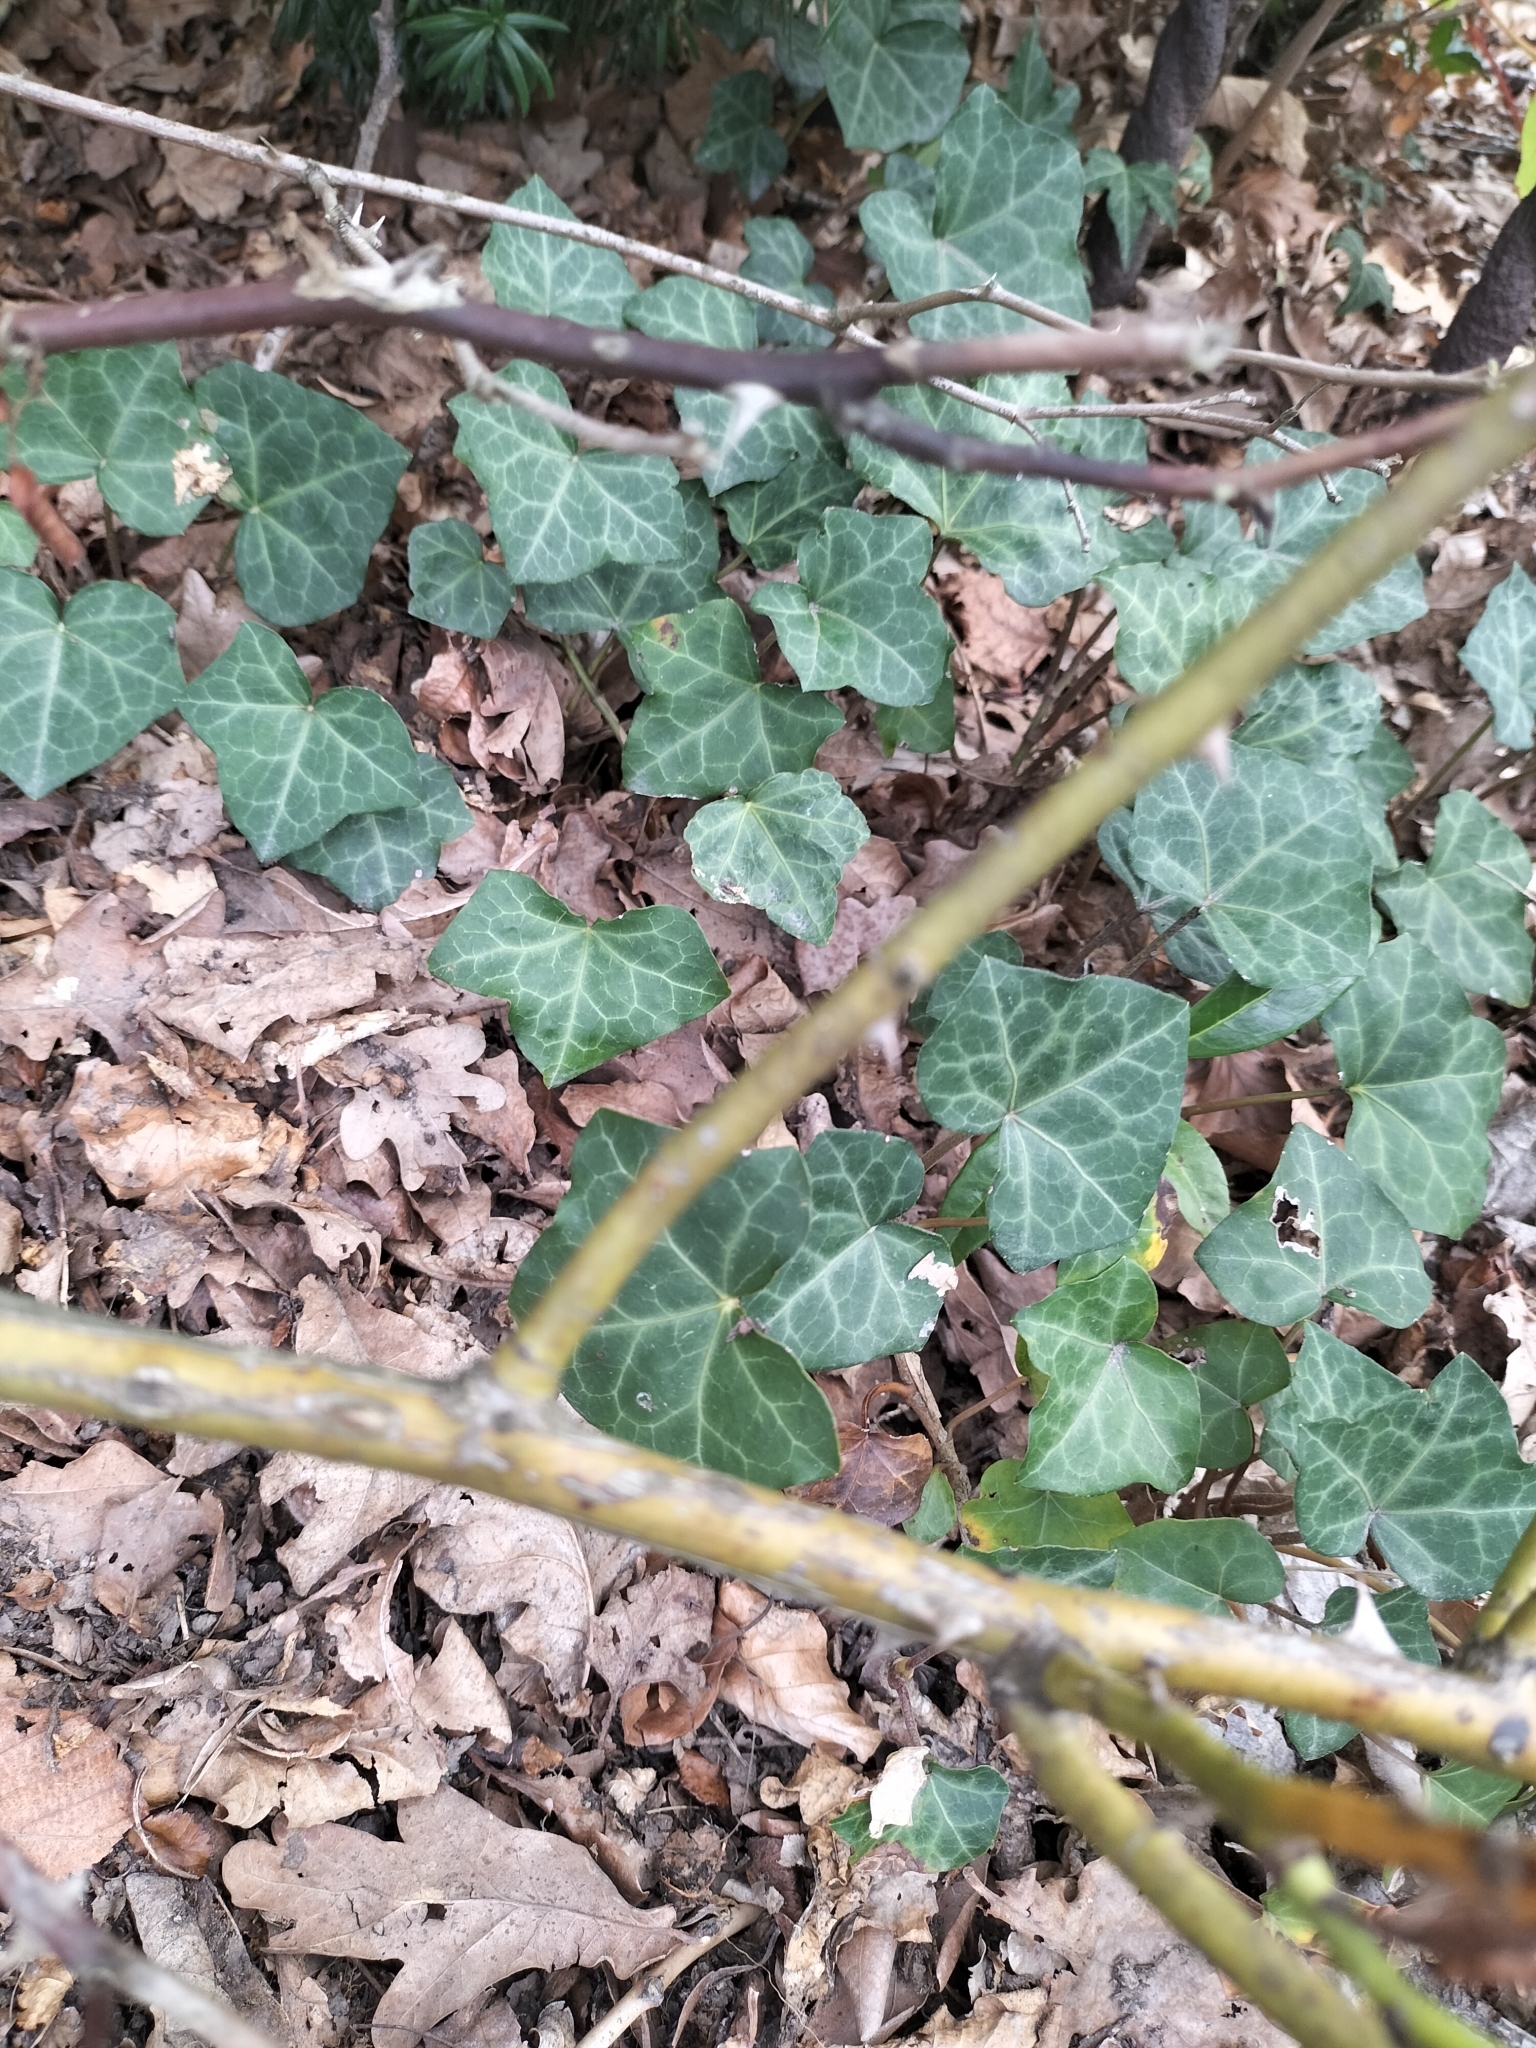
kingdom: Plantae
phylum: Tracheophyta
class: Magnoliopsida
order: Apiales
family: Araliaceae
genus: Hedera
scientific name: Hedera helix
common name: Ivy
